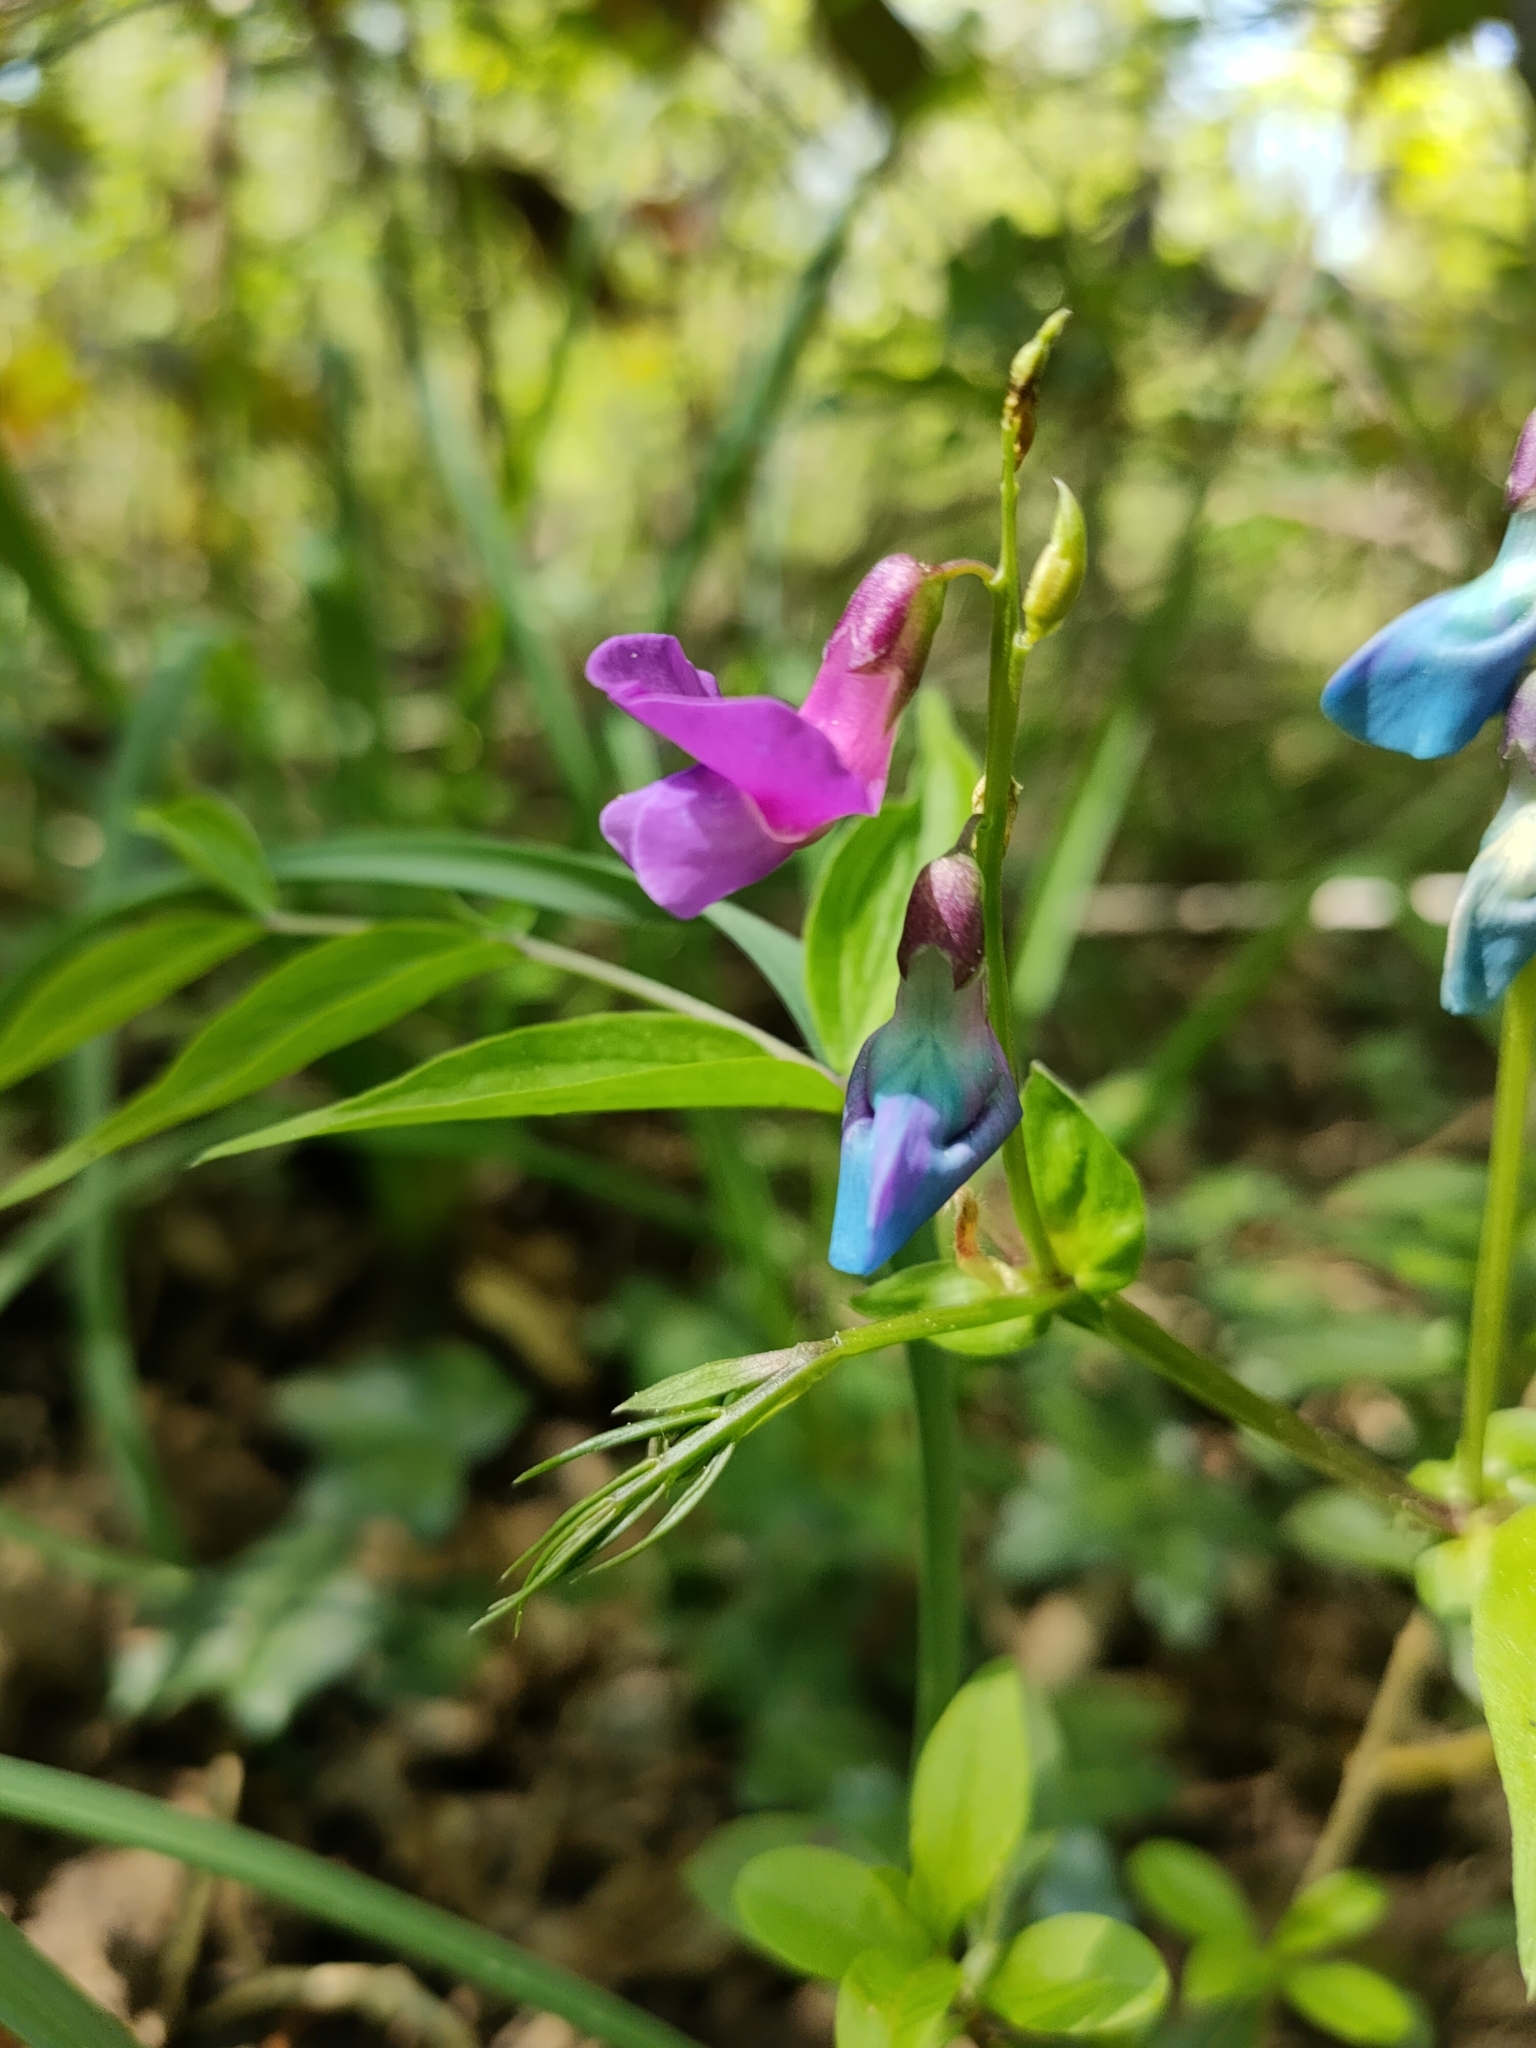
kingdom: Plantae
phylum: Tracheophyta
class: Magnoliopsida
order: Fabales
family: Fabaceae
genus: Lathyrus
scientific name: Lathyrus vernus
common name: Spring pea
